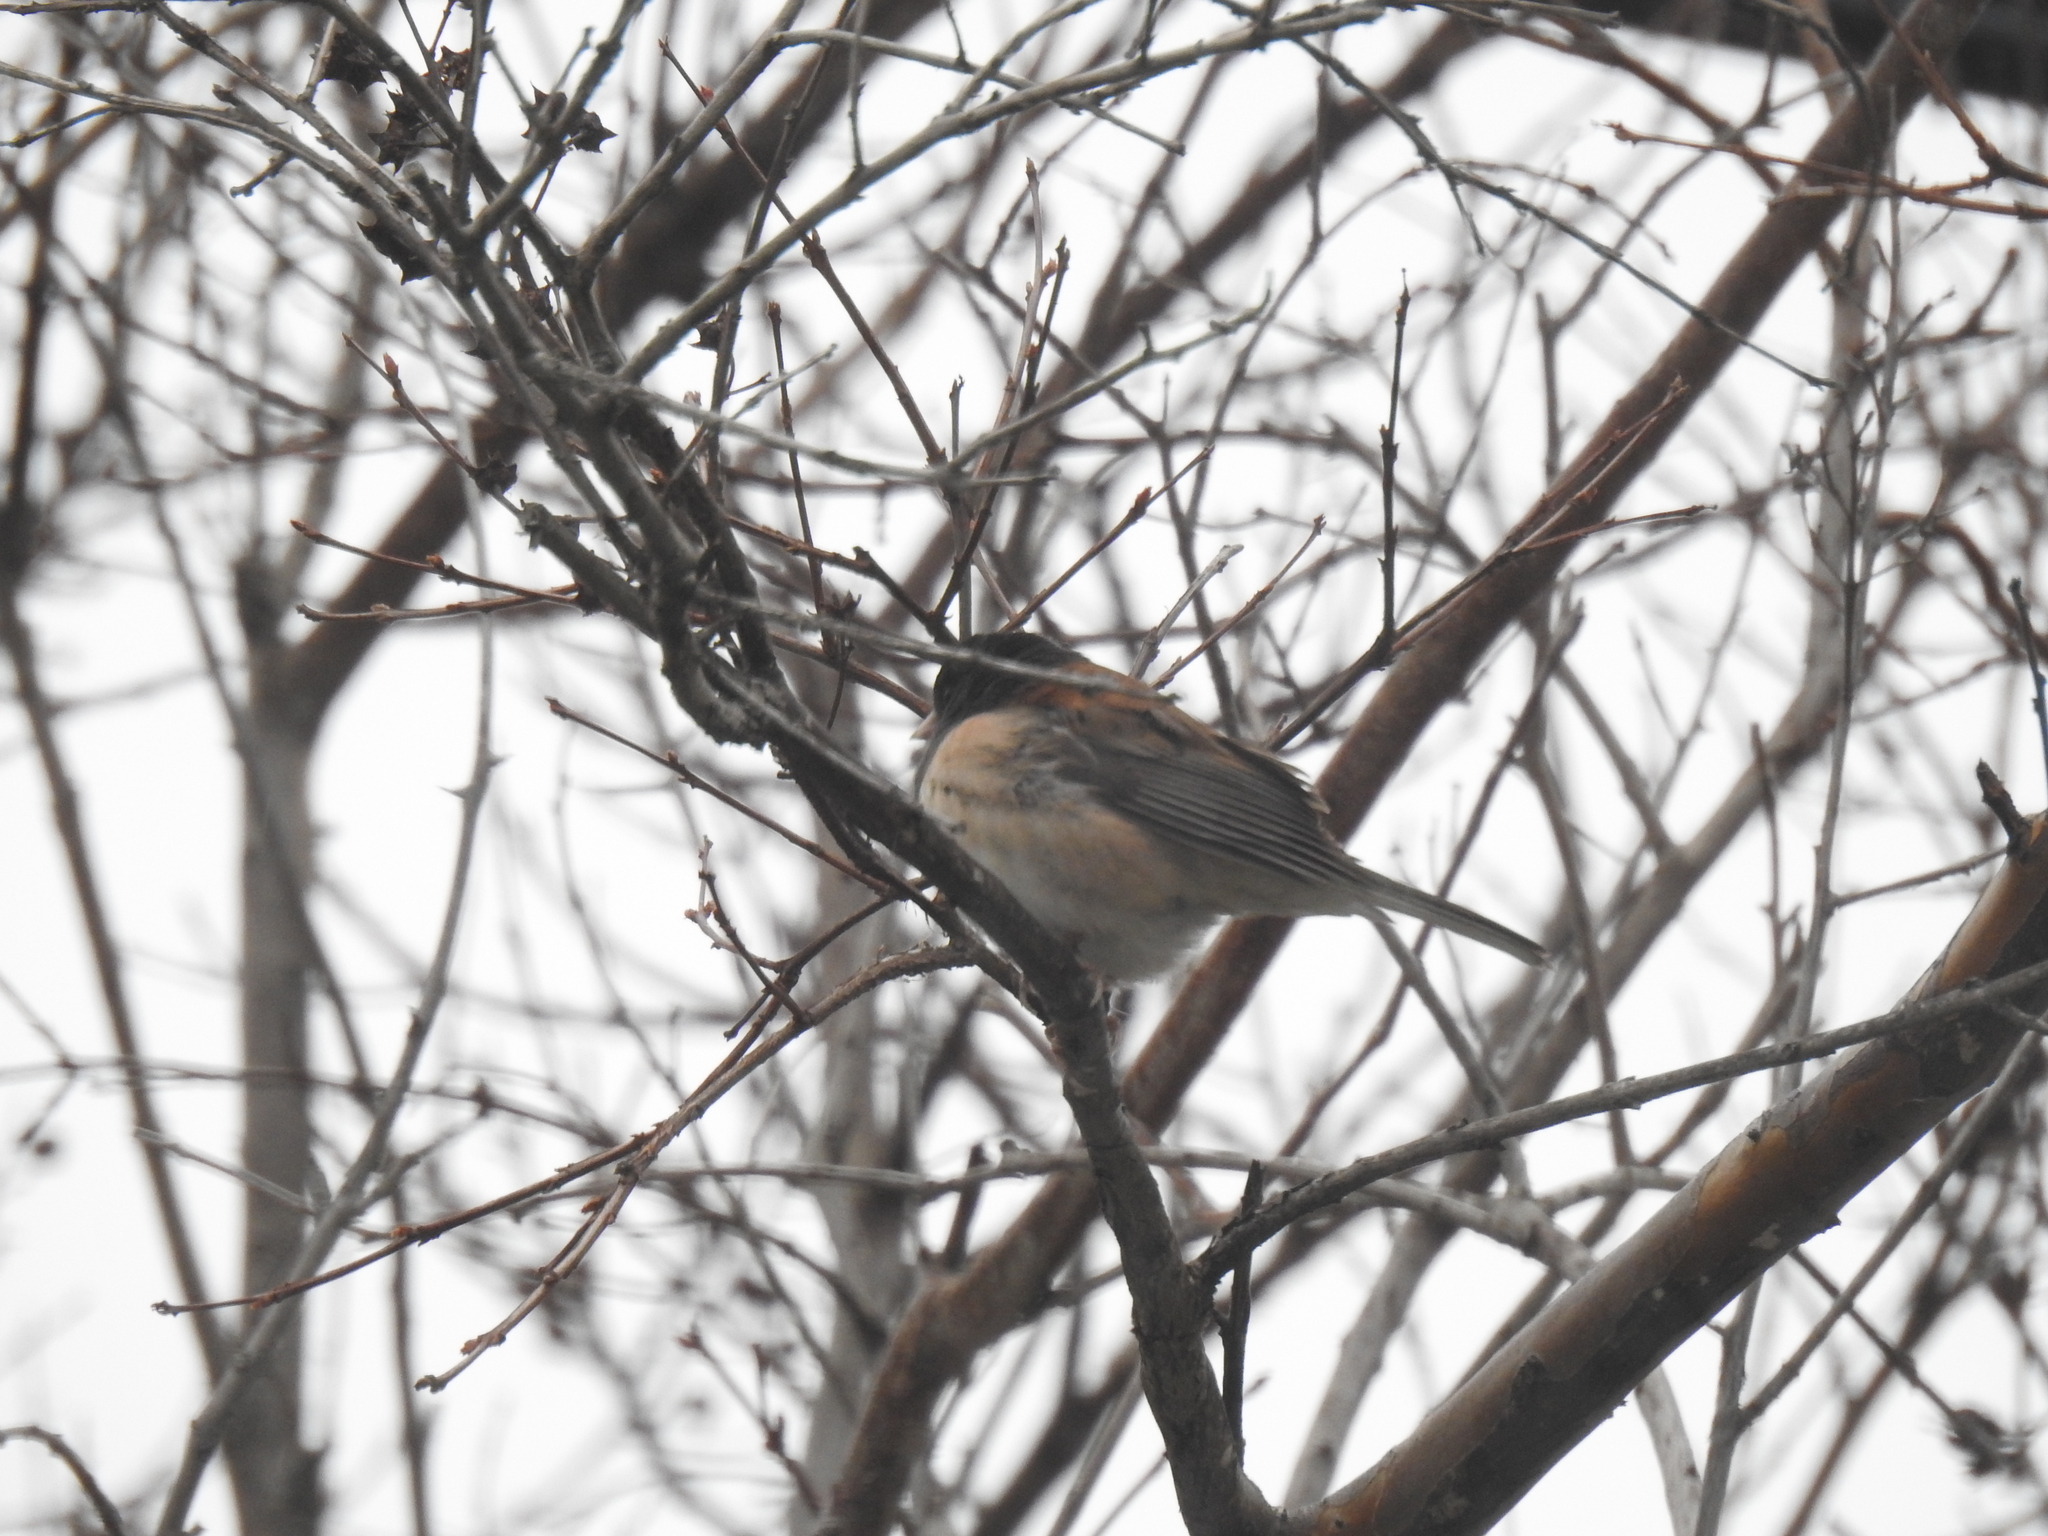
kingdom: Animalia
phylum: Chordata
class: Aves
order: Passeriformes
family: Passerellidae
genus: Junco
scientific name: Junco hyemalis
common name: Dark-eyed junco
